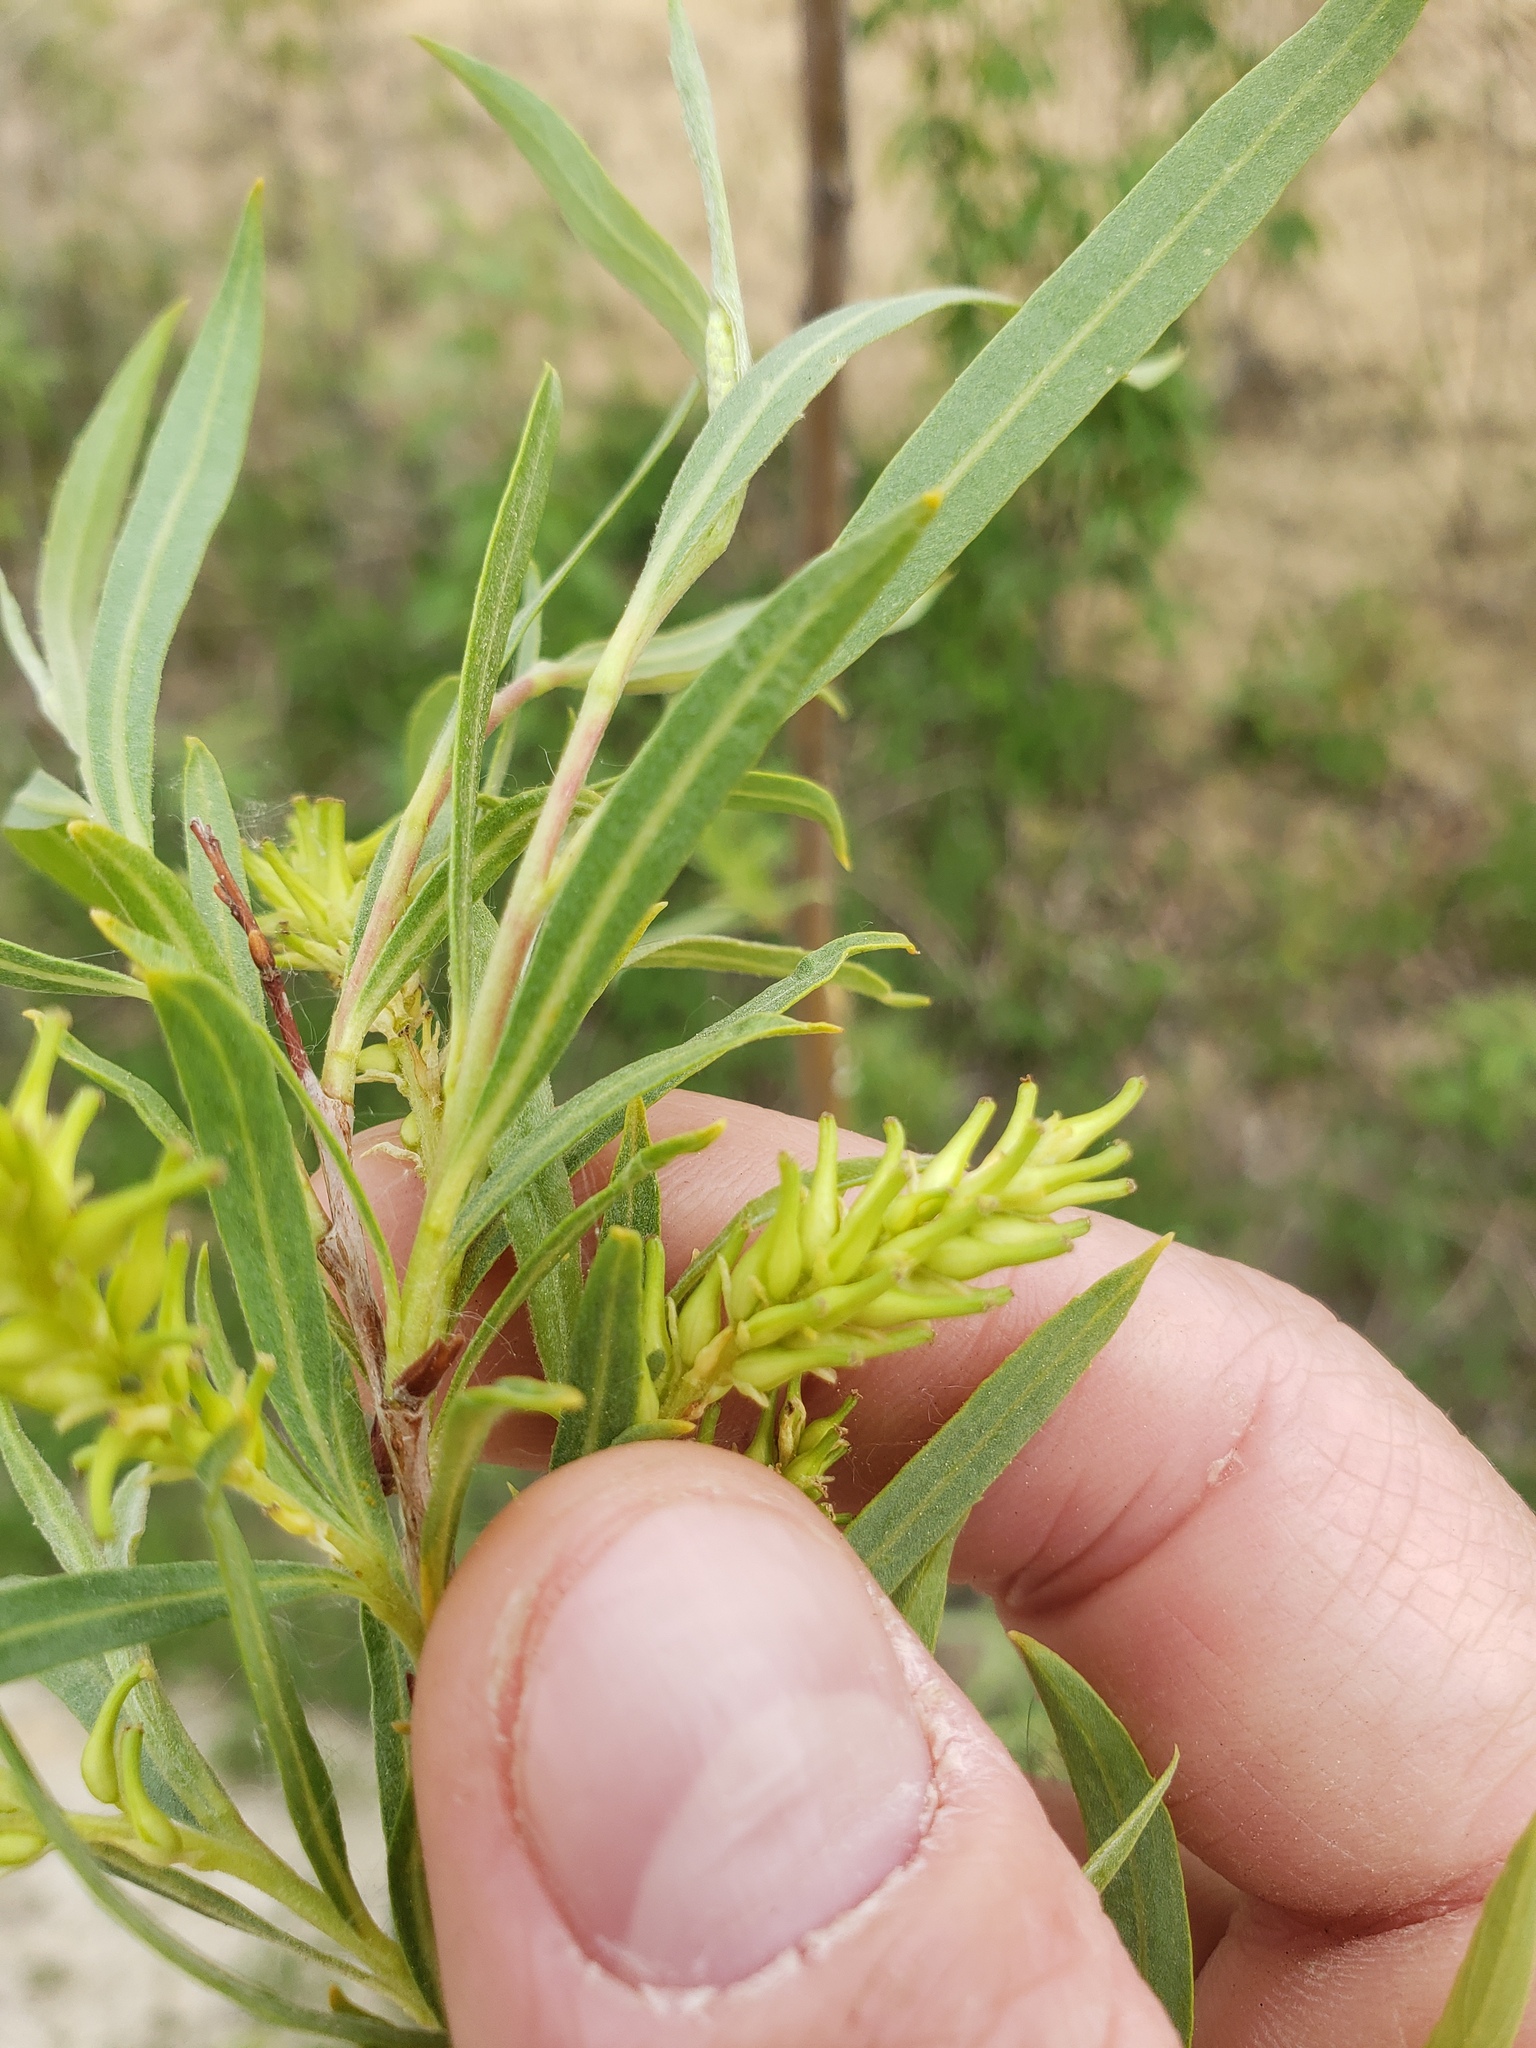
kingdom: Plantae
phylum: Tracheophyta
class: Magnoliopsida
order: Malpighiales
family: Salicaceae
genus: Salix
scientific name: Salix interior
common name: Sandbar willow
